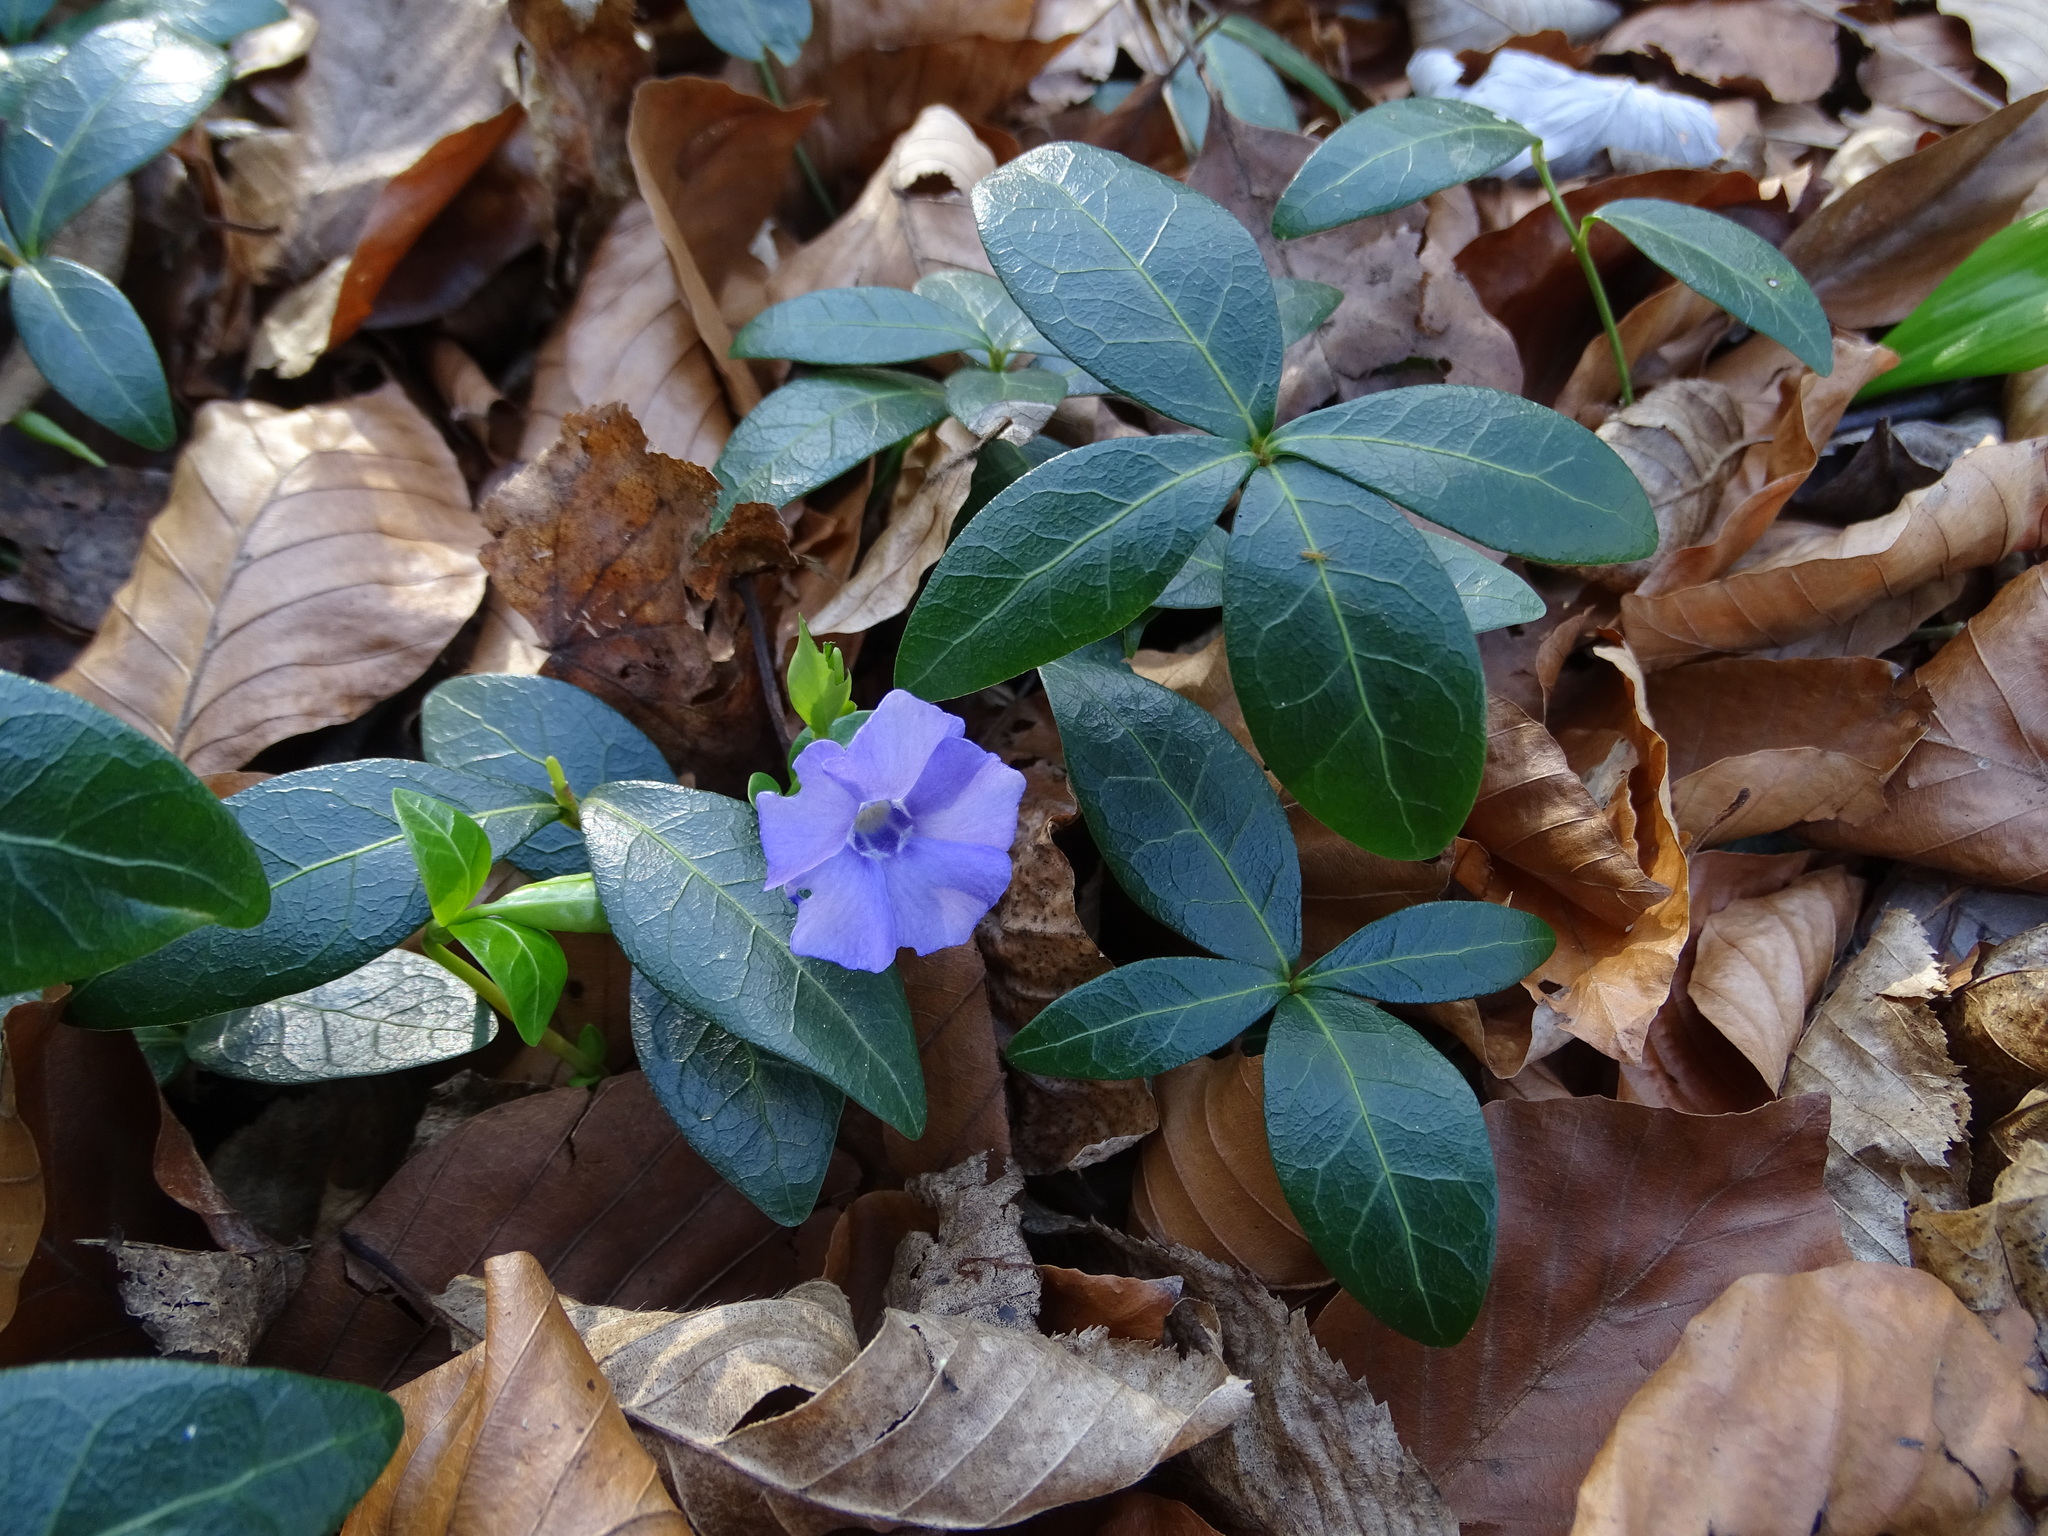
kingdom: Plantae
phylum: Tracheophyta
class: Magnoliopsida
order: Gentianales
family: Apocynaceae
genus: Vinca
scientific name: Vinca minor
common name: Lesser periwinkle
